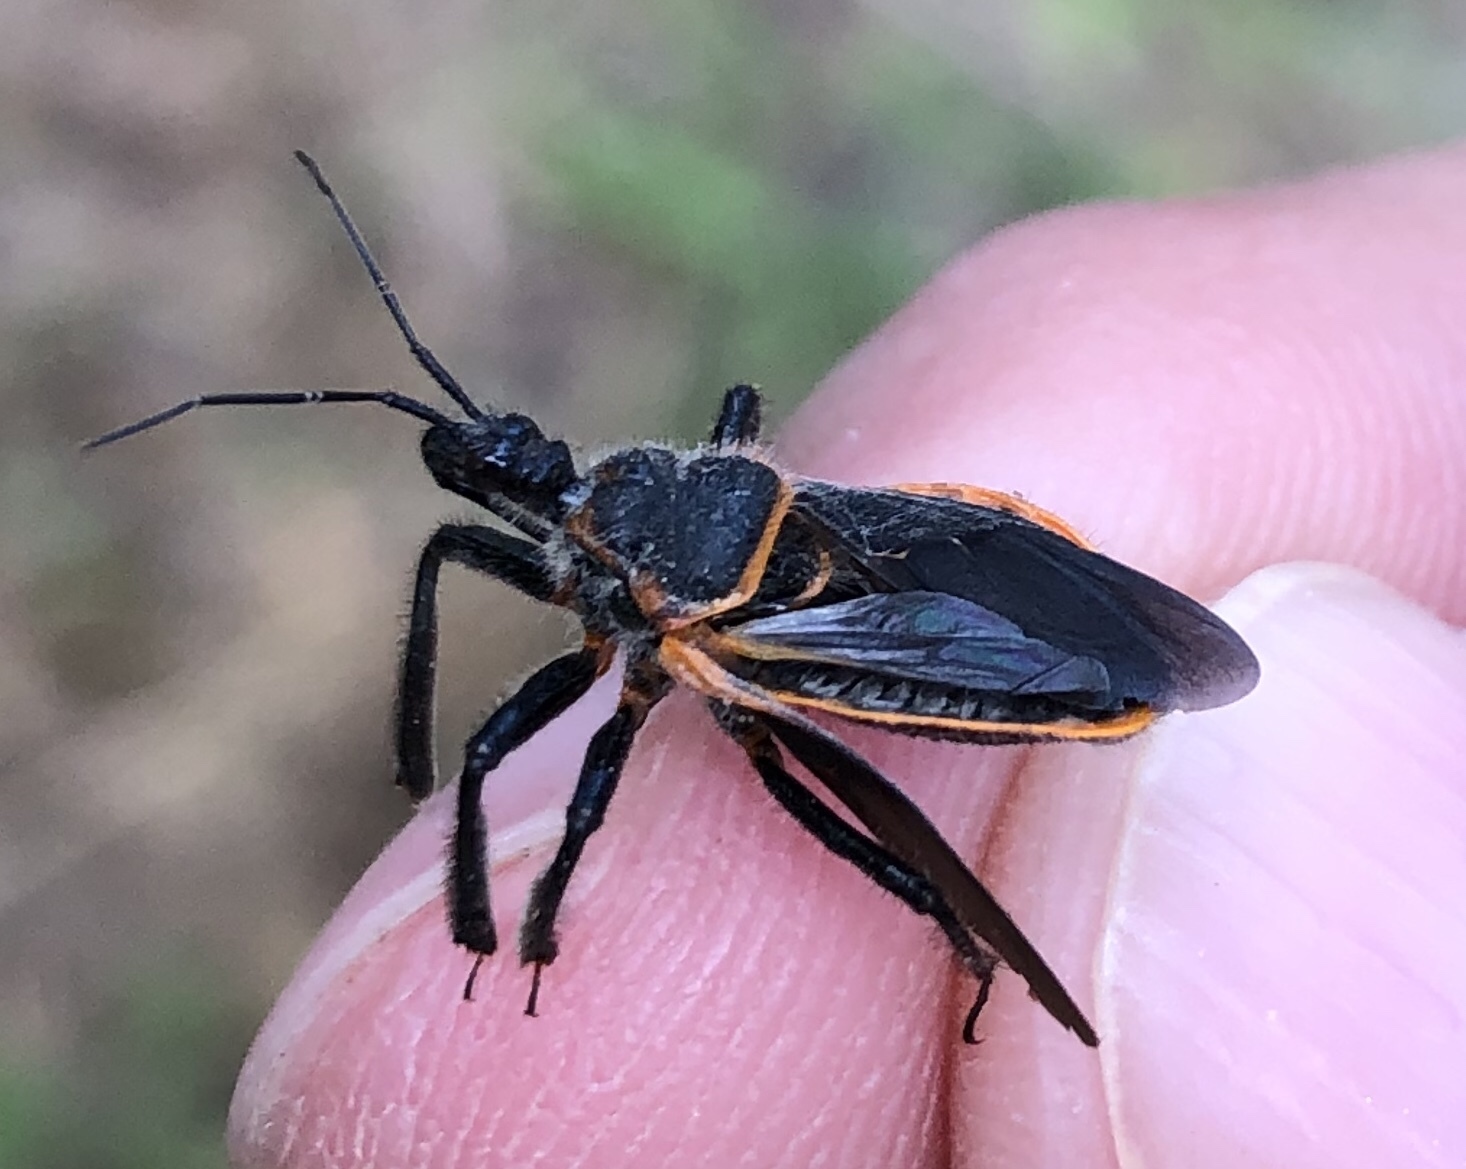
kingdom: Animalia
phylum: Arthropoda
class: Insecta
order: Hemiptera
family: Reduviidae
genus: Apiomerus
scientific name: Apiomerus crassipes
